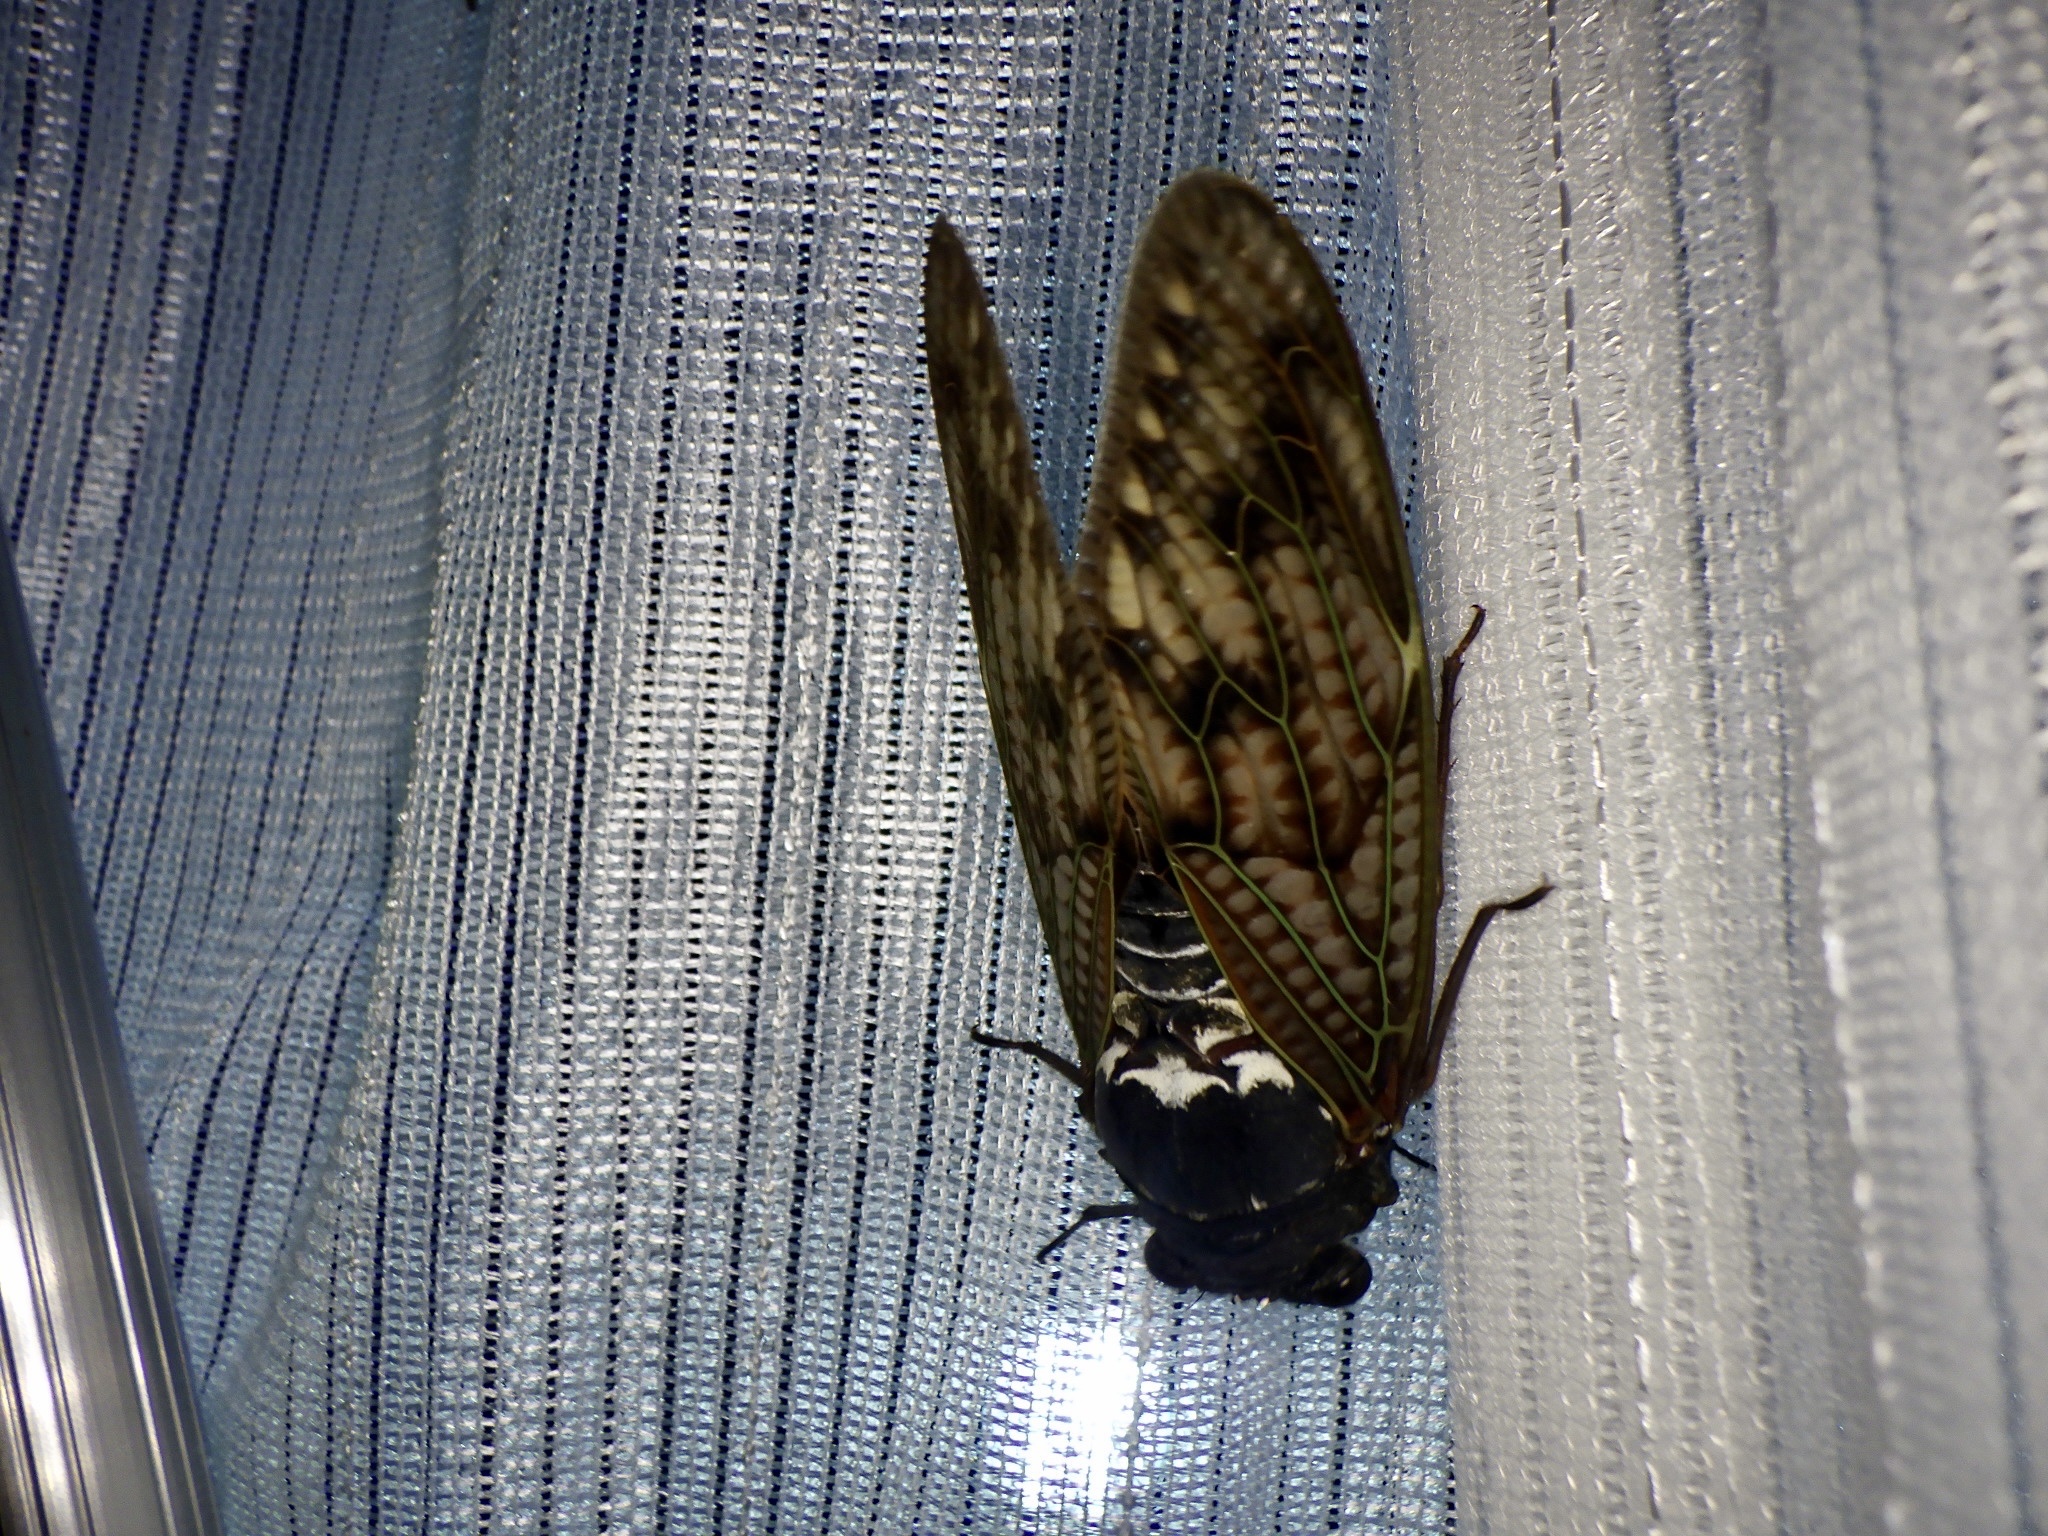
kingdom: Animalia
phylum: Arthropoda
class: Insecta
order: Hemiptera
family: Cicadidae
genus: Graptopsaltria
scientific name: Graptopsaltria nigrofuscata
